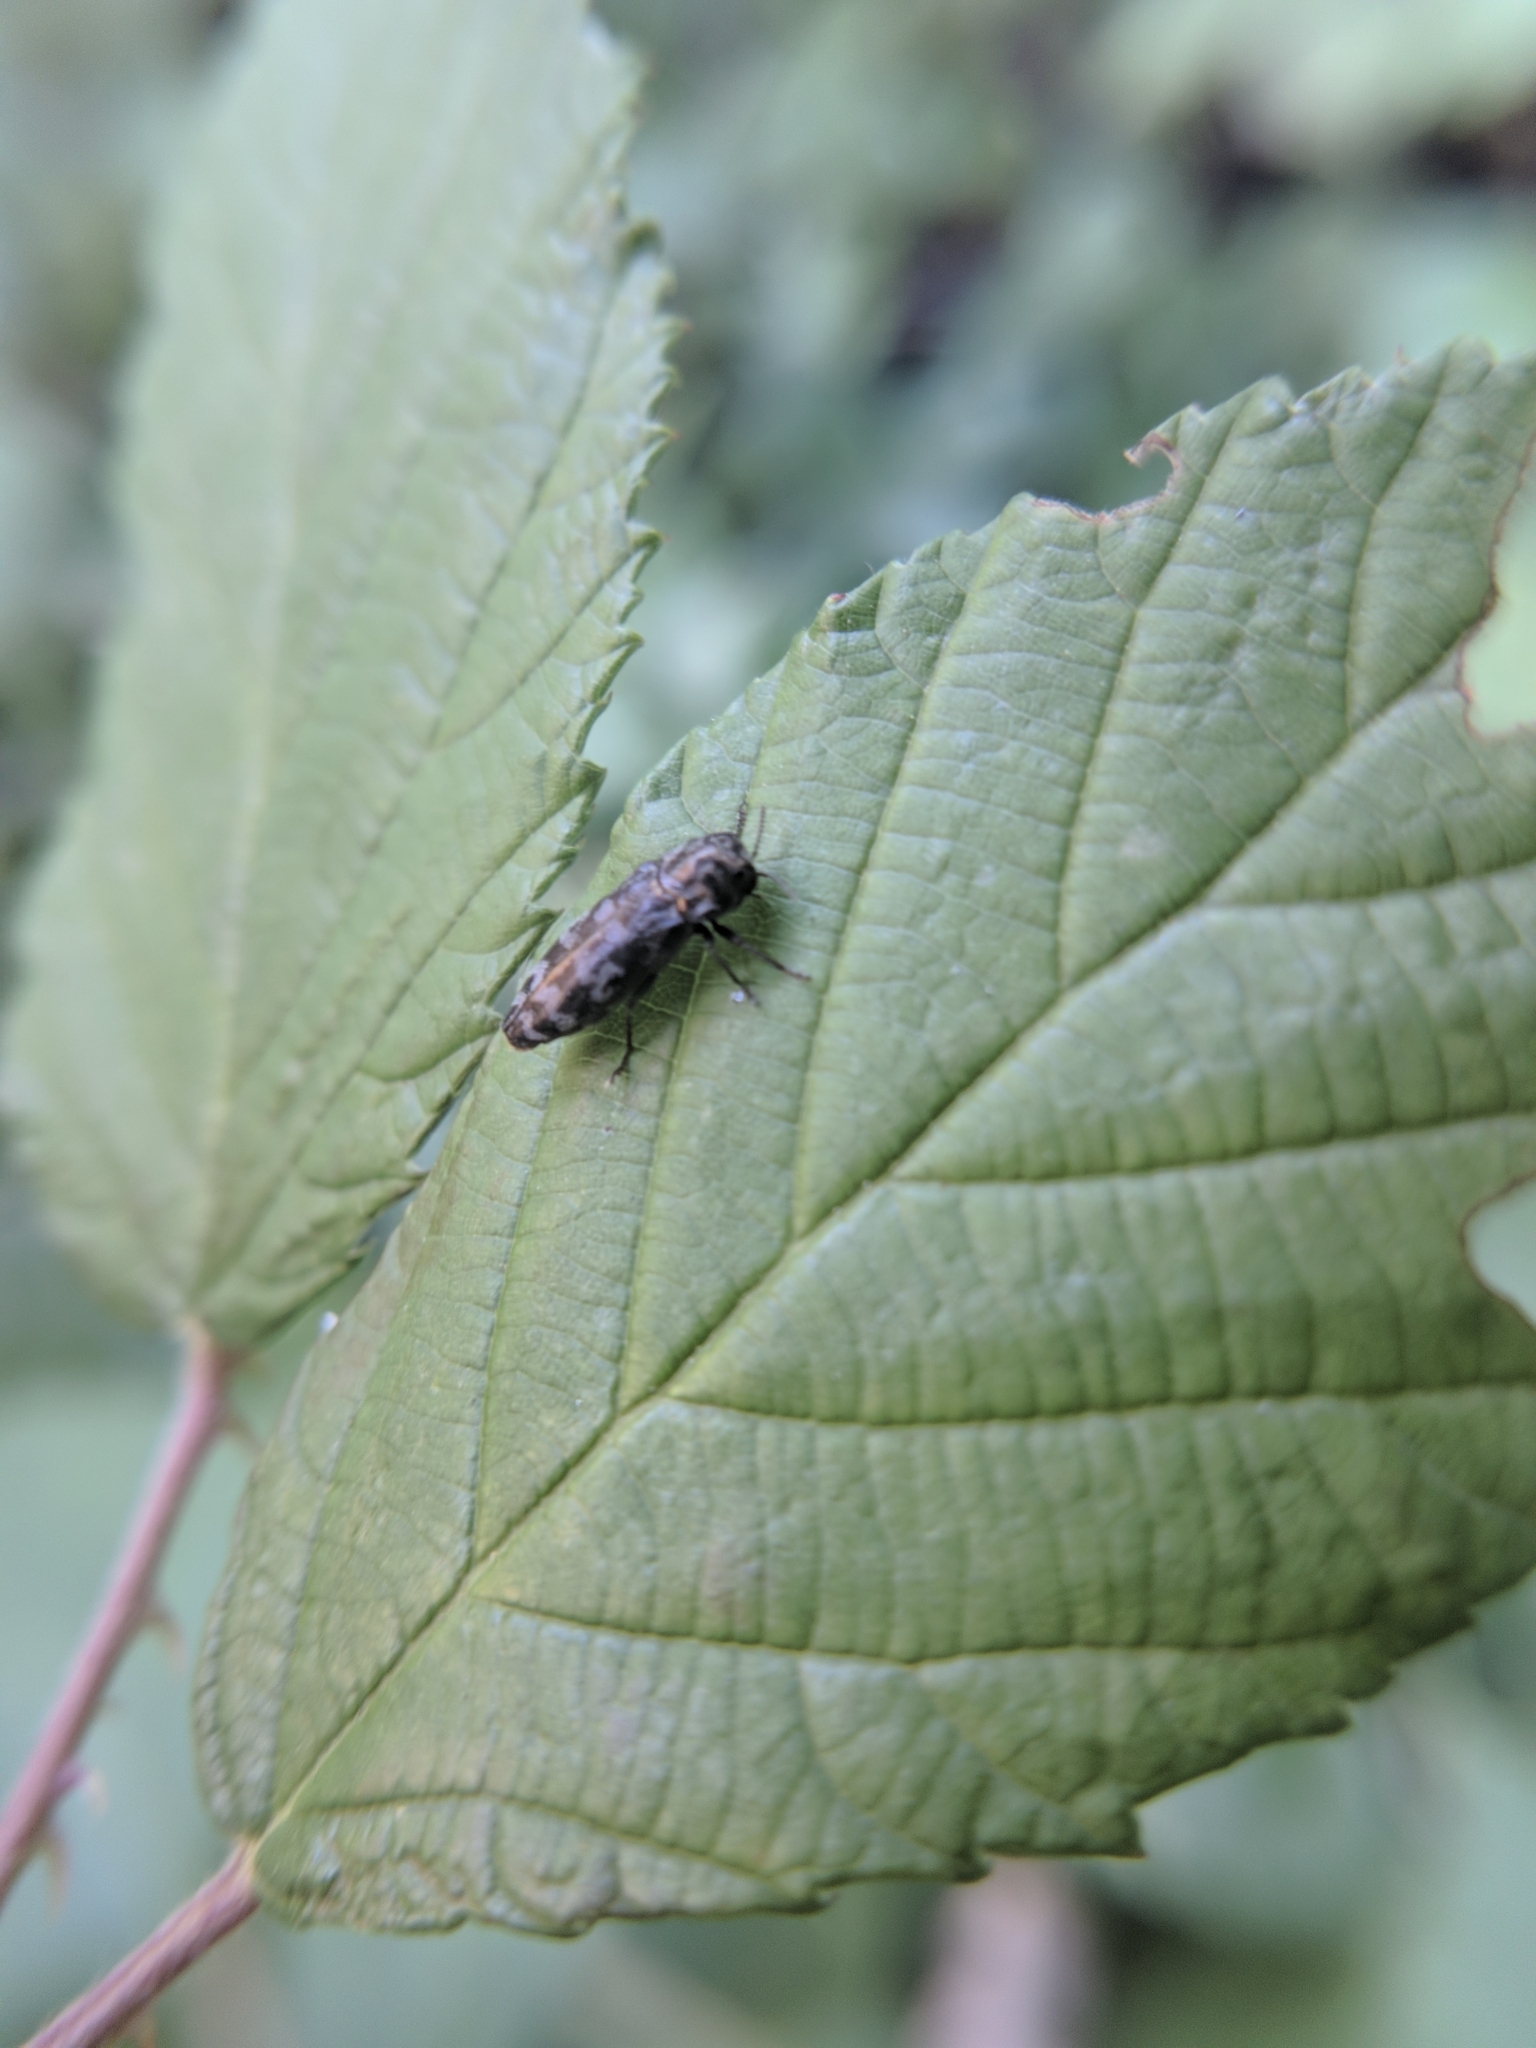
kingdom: Animalia
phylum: Arthropoda
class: Insecta
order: Coleoptera
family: Buprestidae
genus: Coraebus
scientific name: Coraebus rubi
